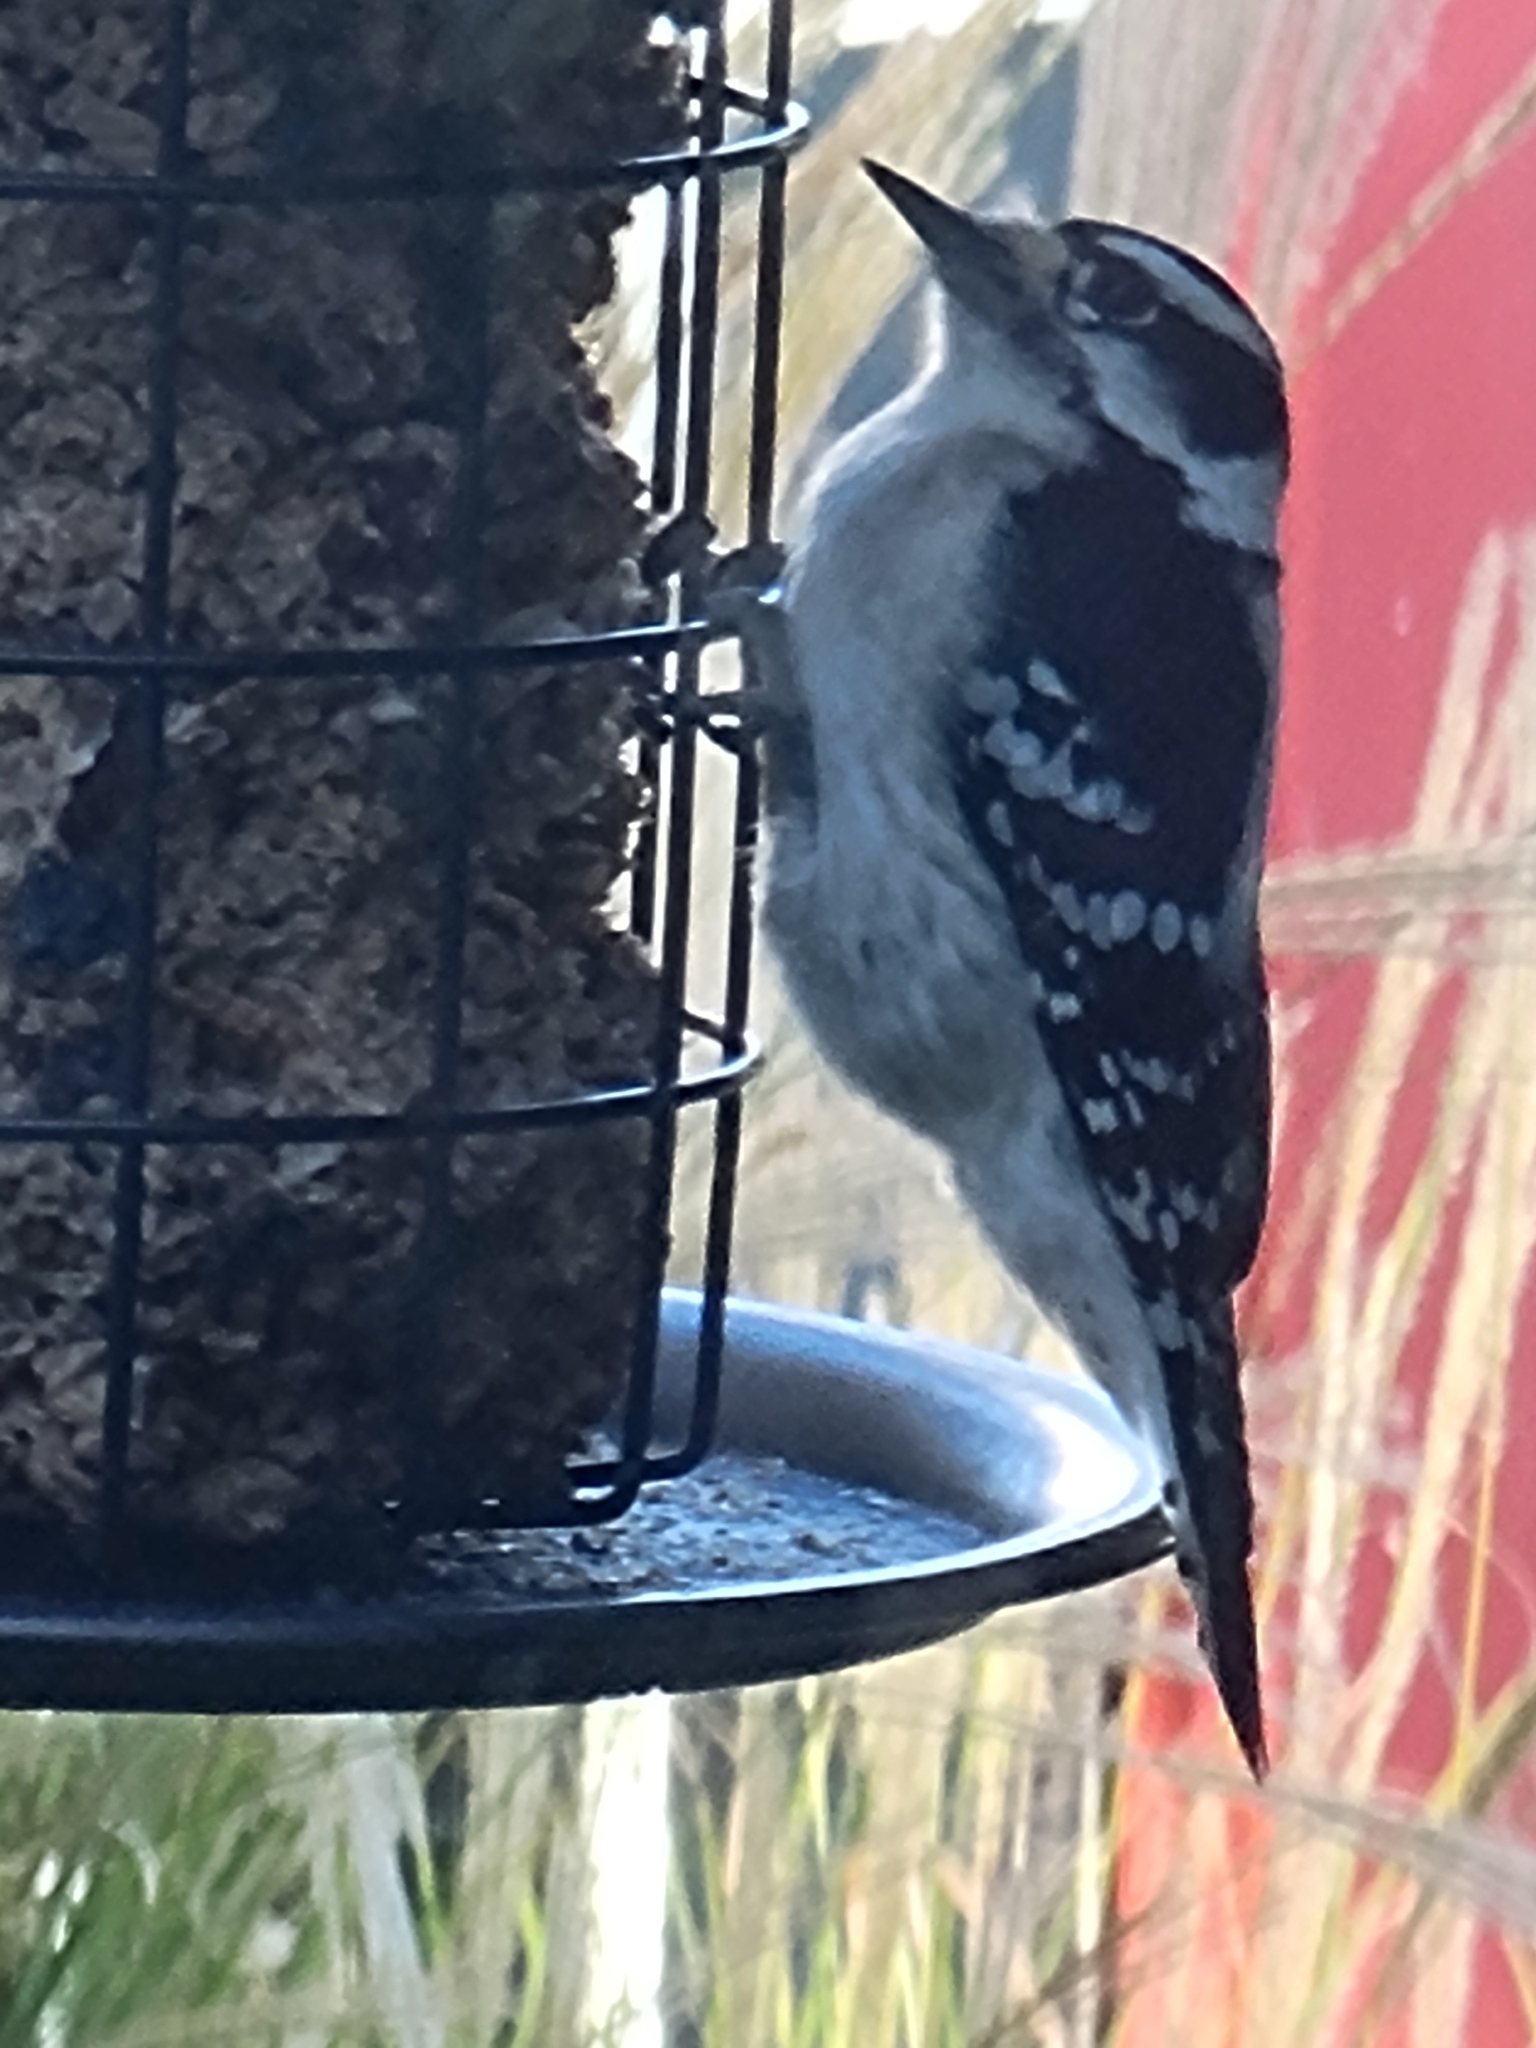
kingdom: Animalia
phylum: Chordata
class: Aves
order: Piciformes
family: Picidae
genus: Dryobates
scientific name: Dryobates pubescens
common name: Downy woodpecker
